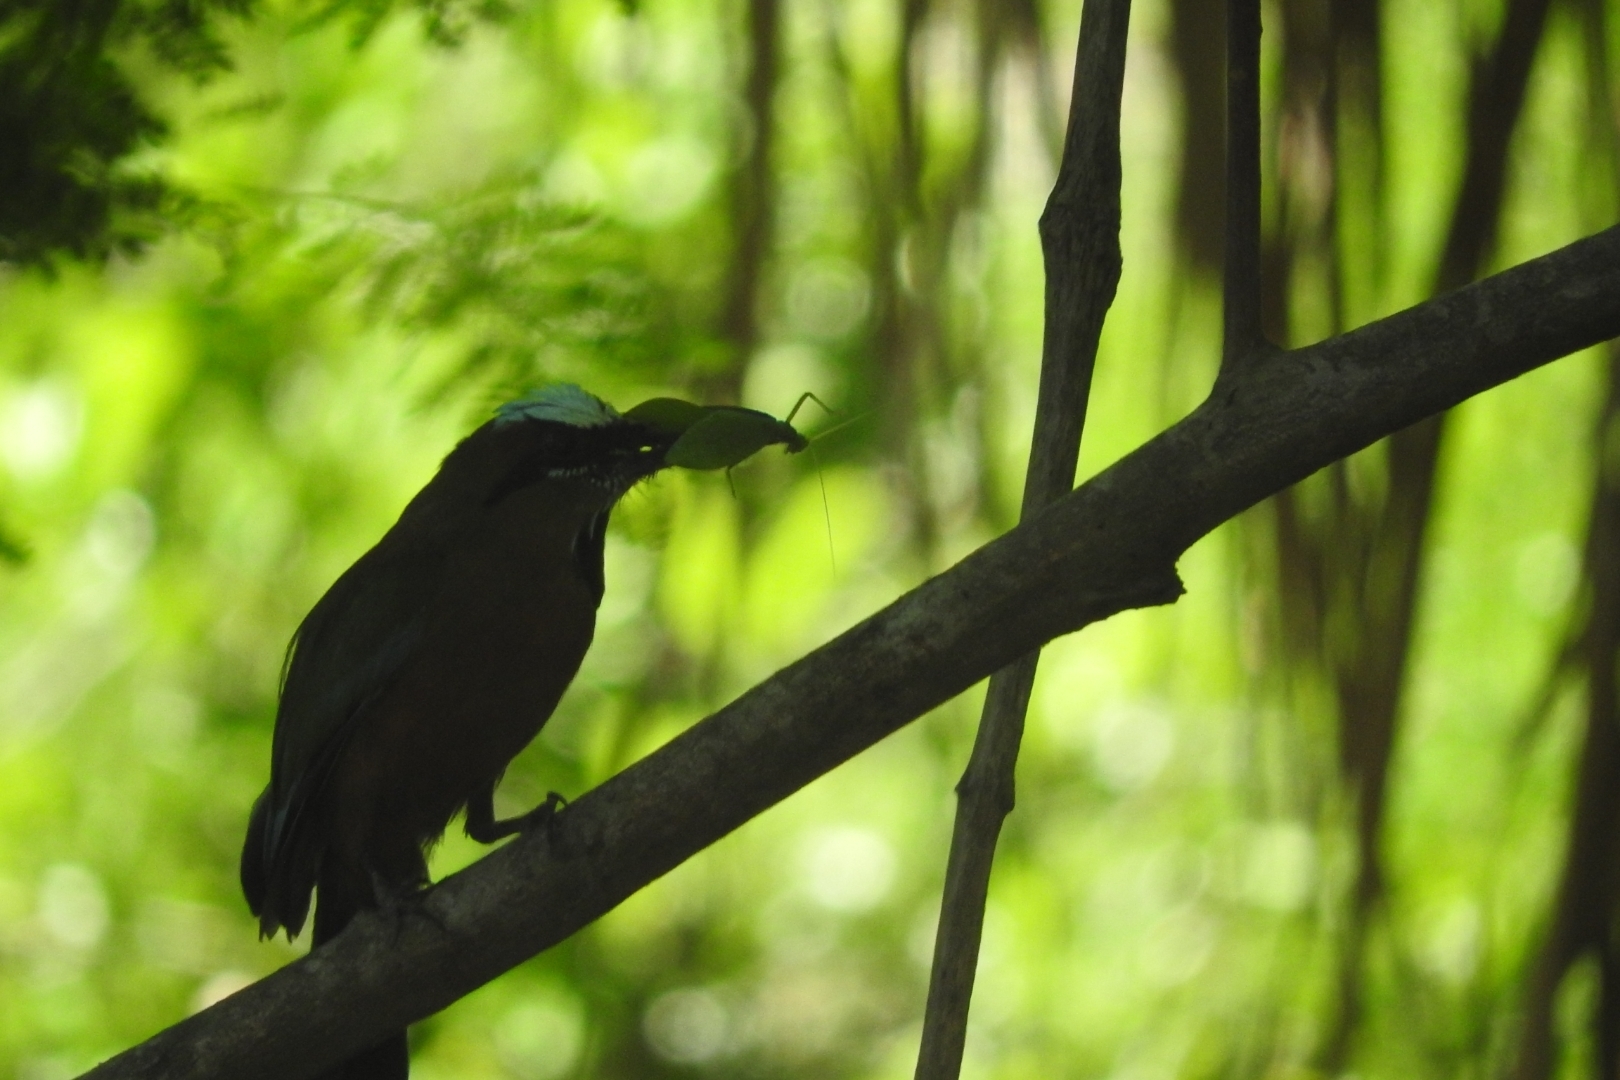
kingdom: Animalia
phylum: Chordata
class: Aves
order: Coraciiformes
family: Momotidae
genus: Eumomota
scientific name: Eumomota superciliosa
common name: Turquoise-browed motmot
